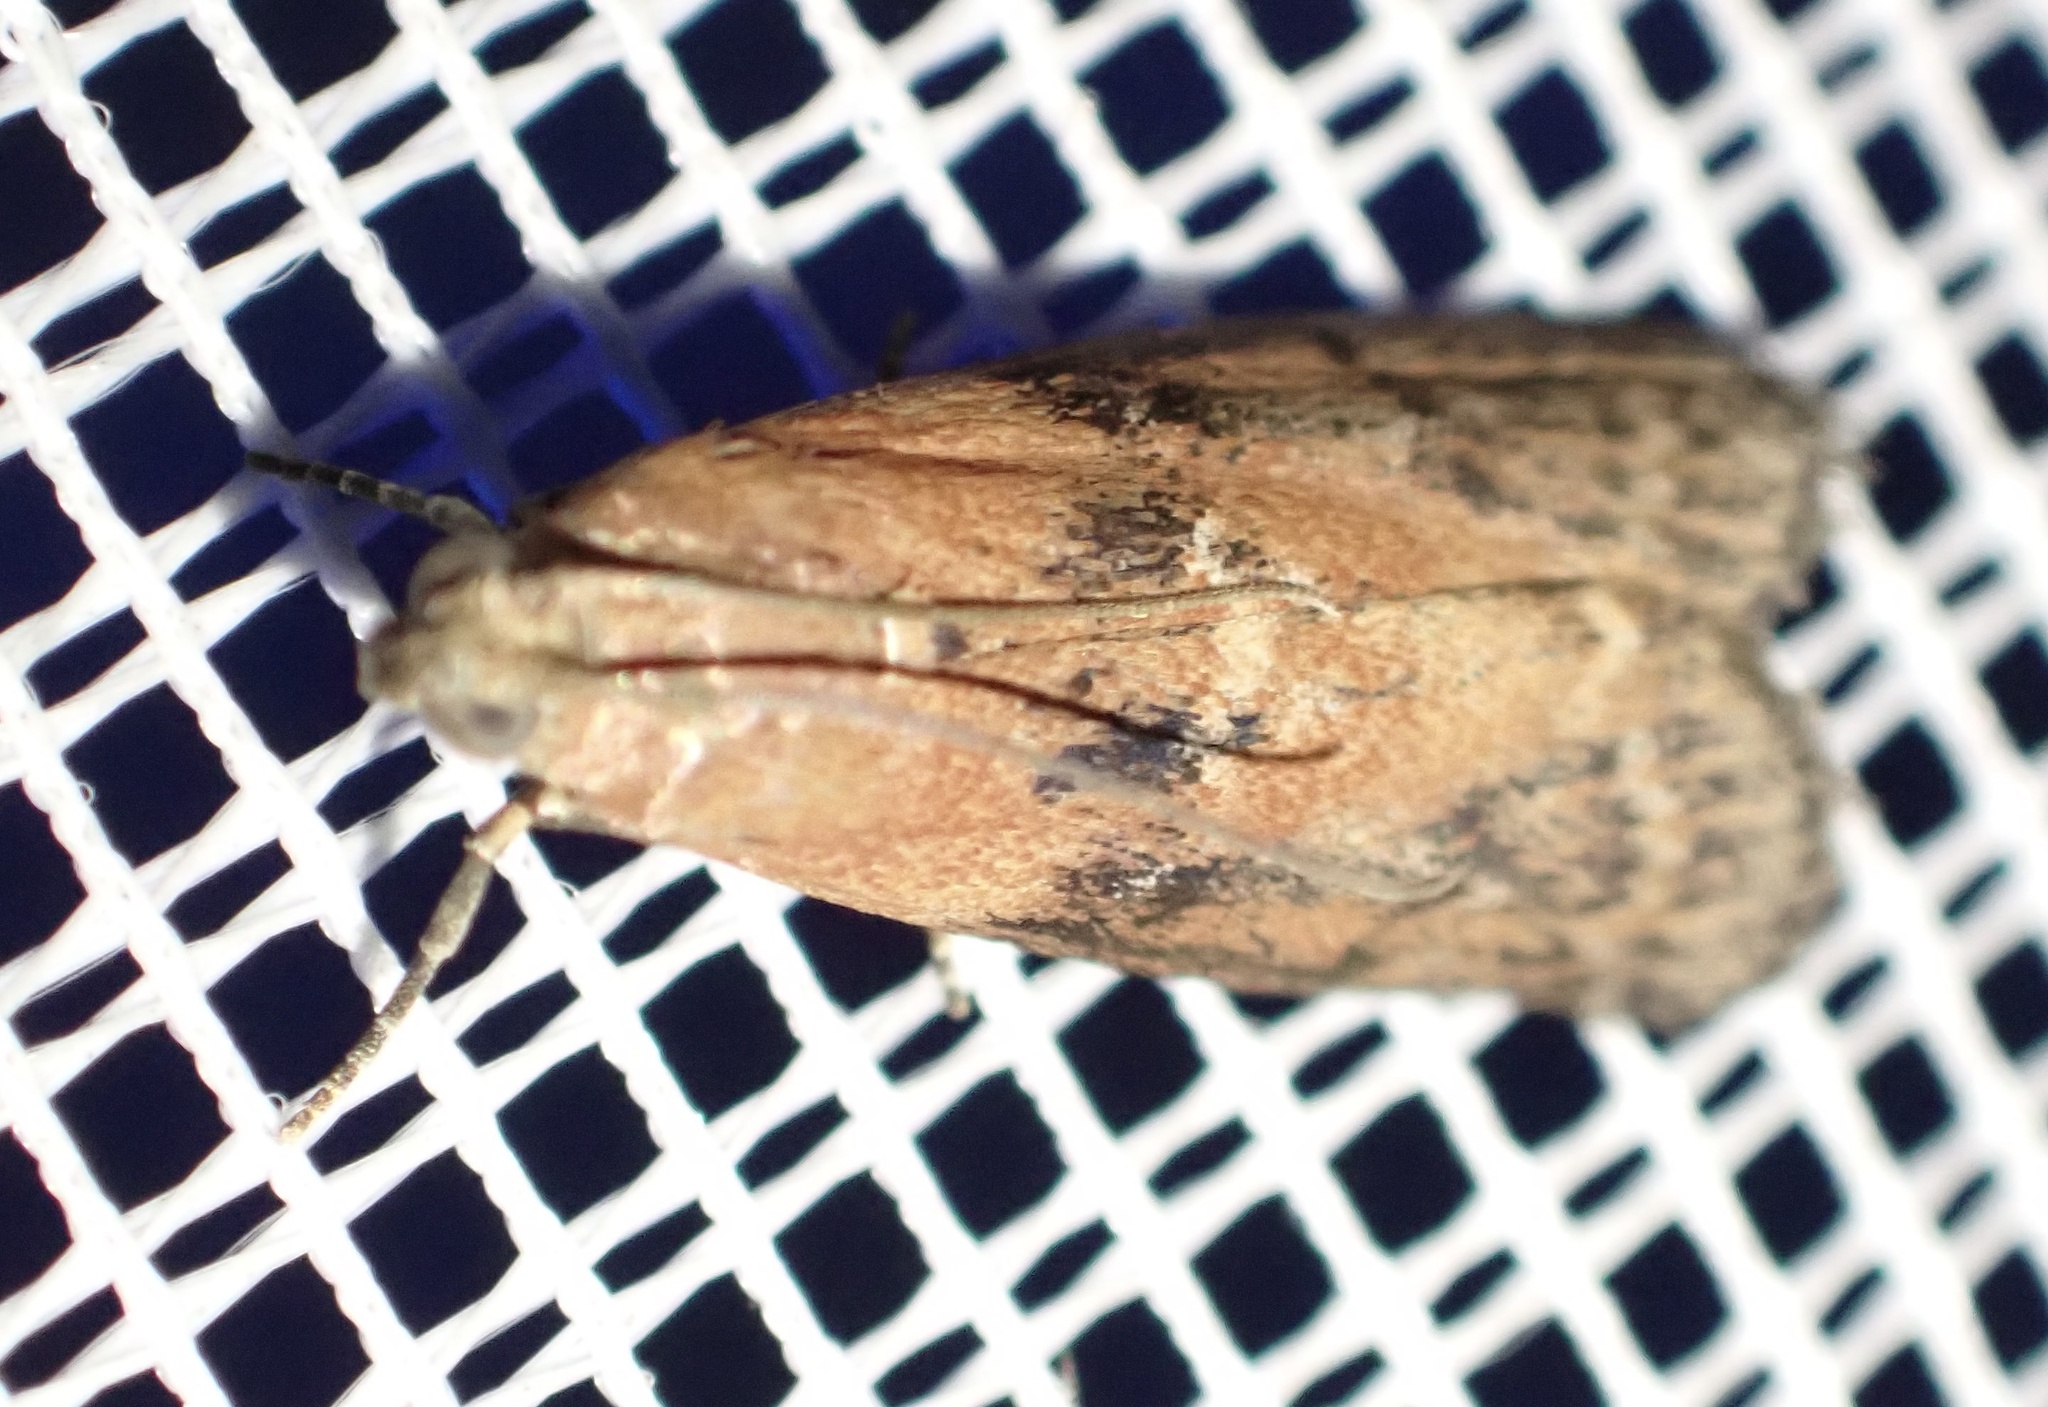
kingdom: Animalia
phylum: Arthropoda
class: Insecta
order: Lepidoptera
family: Pyralidae
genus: Sciota
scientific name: Sciota adelphella
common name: Willow knot-horn
